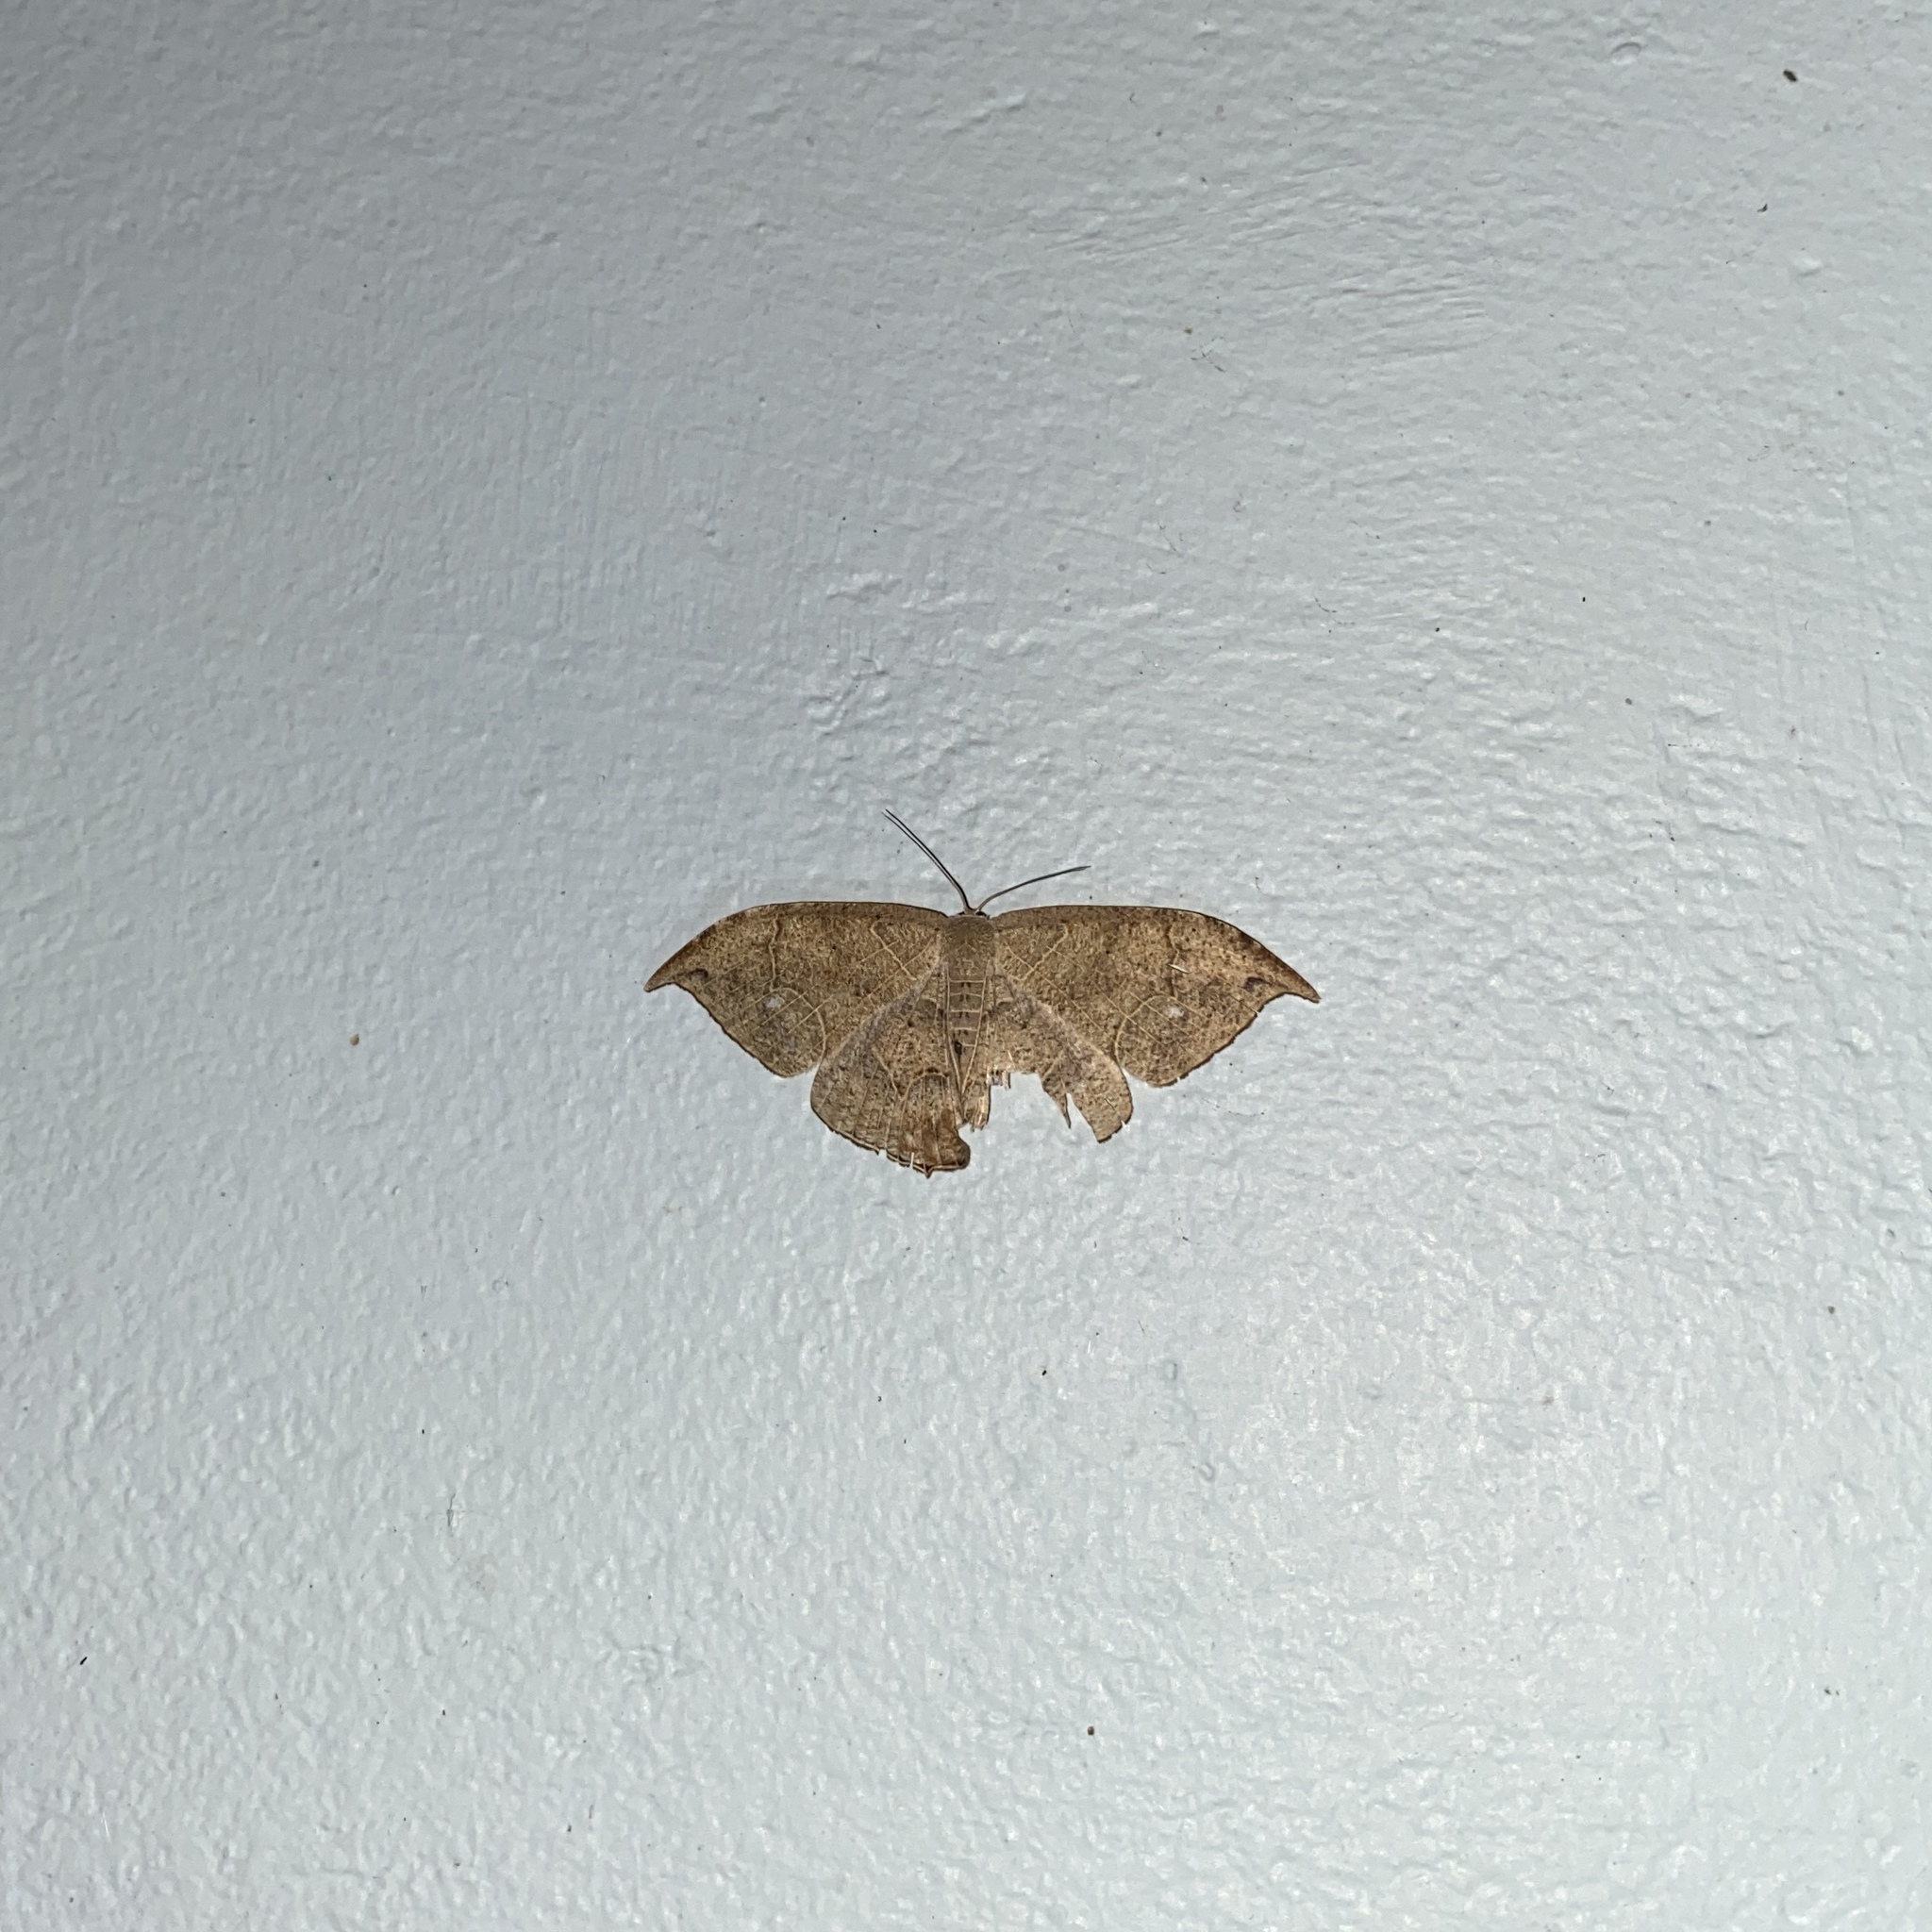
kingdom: Animalia
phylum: Arthropoda
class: Insecta
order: Lepidoptera
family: Uraniidae
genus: Syngria
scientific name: Syngria druidaria
